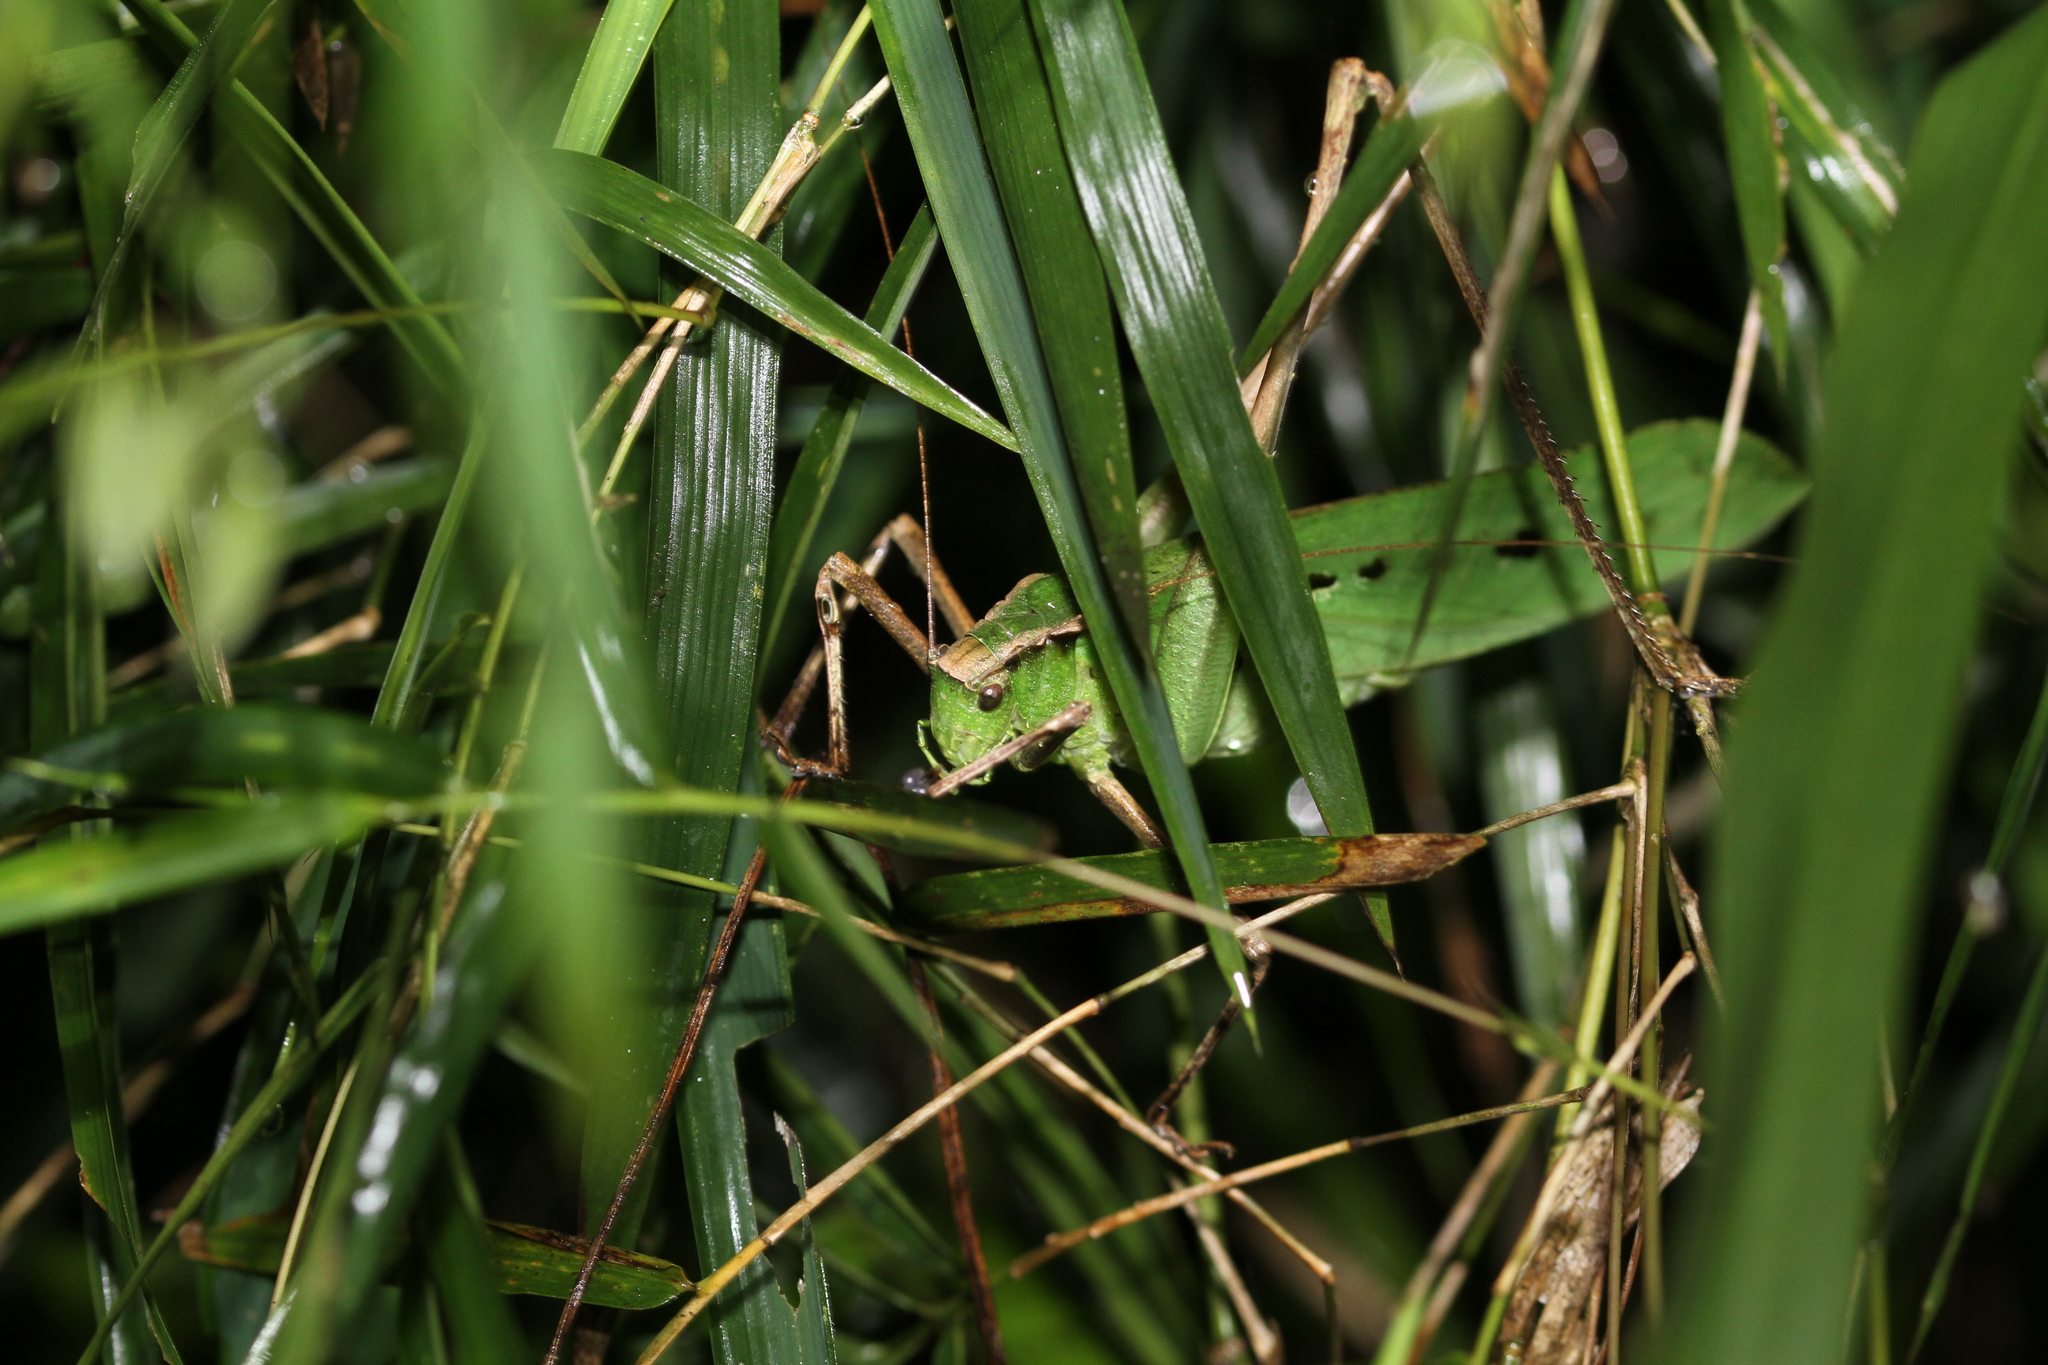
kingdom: Animalia
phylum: Arthropoda
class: Insecta
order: Orthoptera
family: Tettigoniidae
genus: Mecopoda
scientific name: Mecopoda elongata
